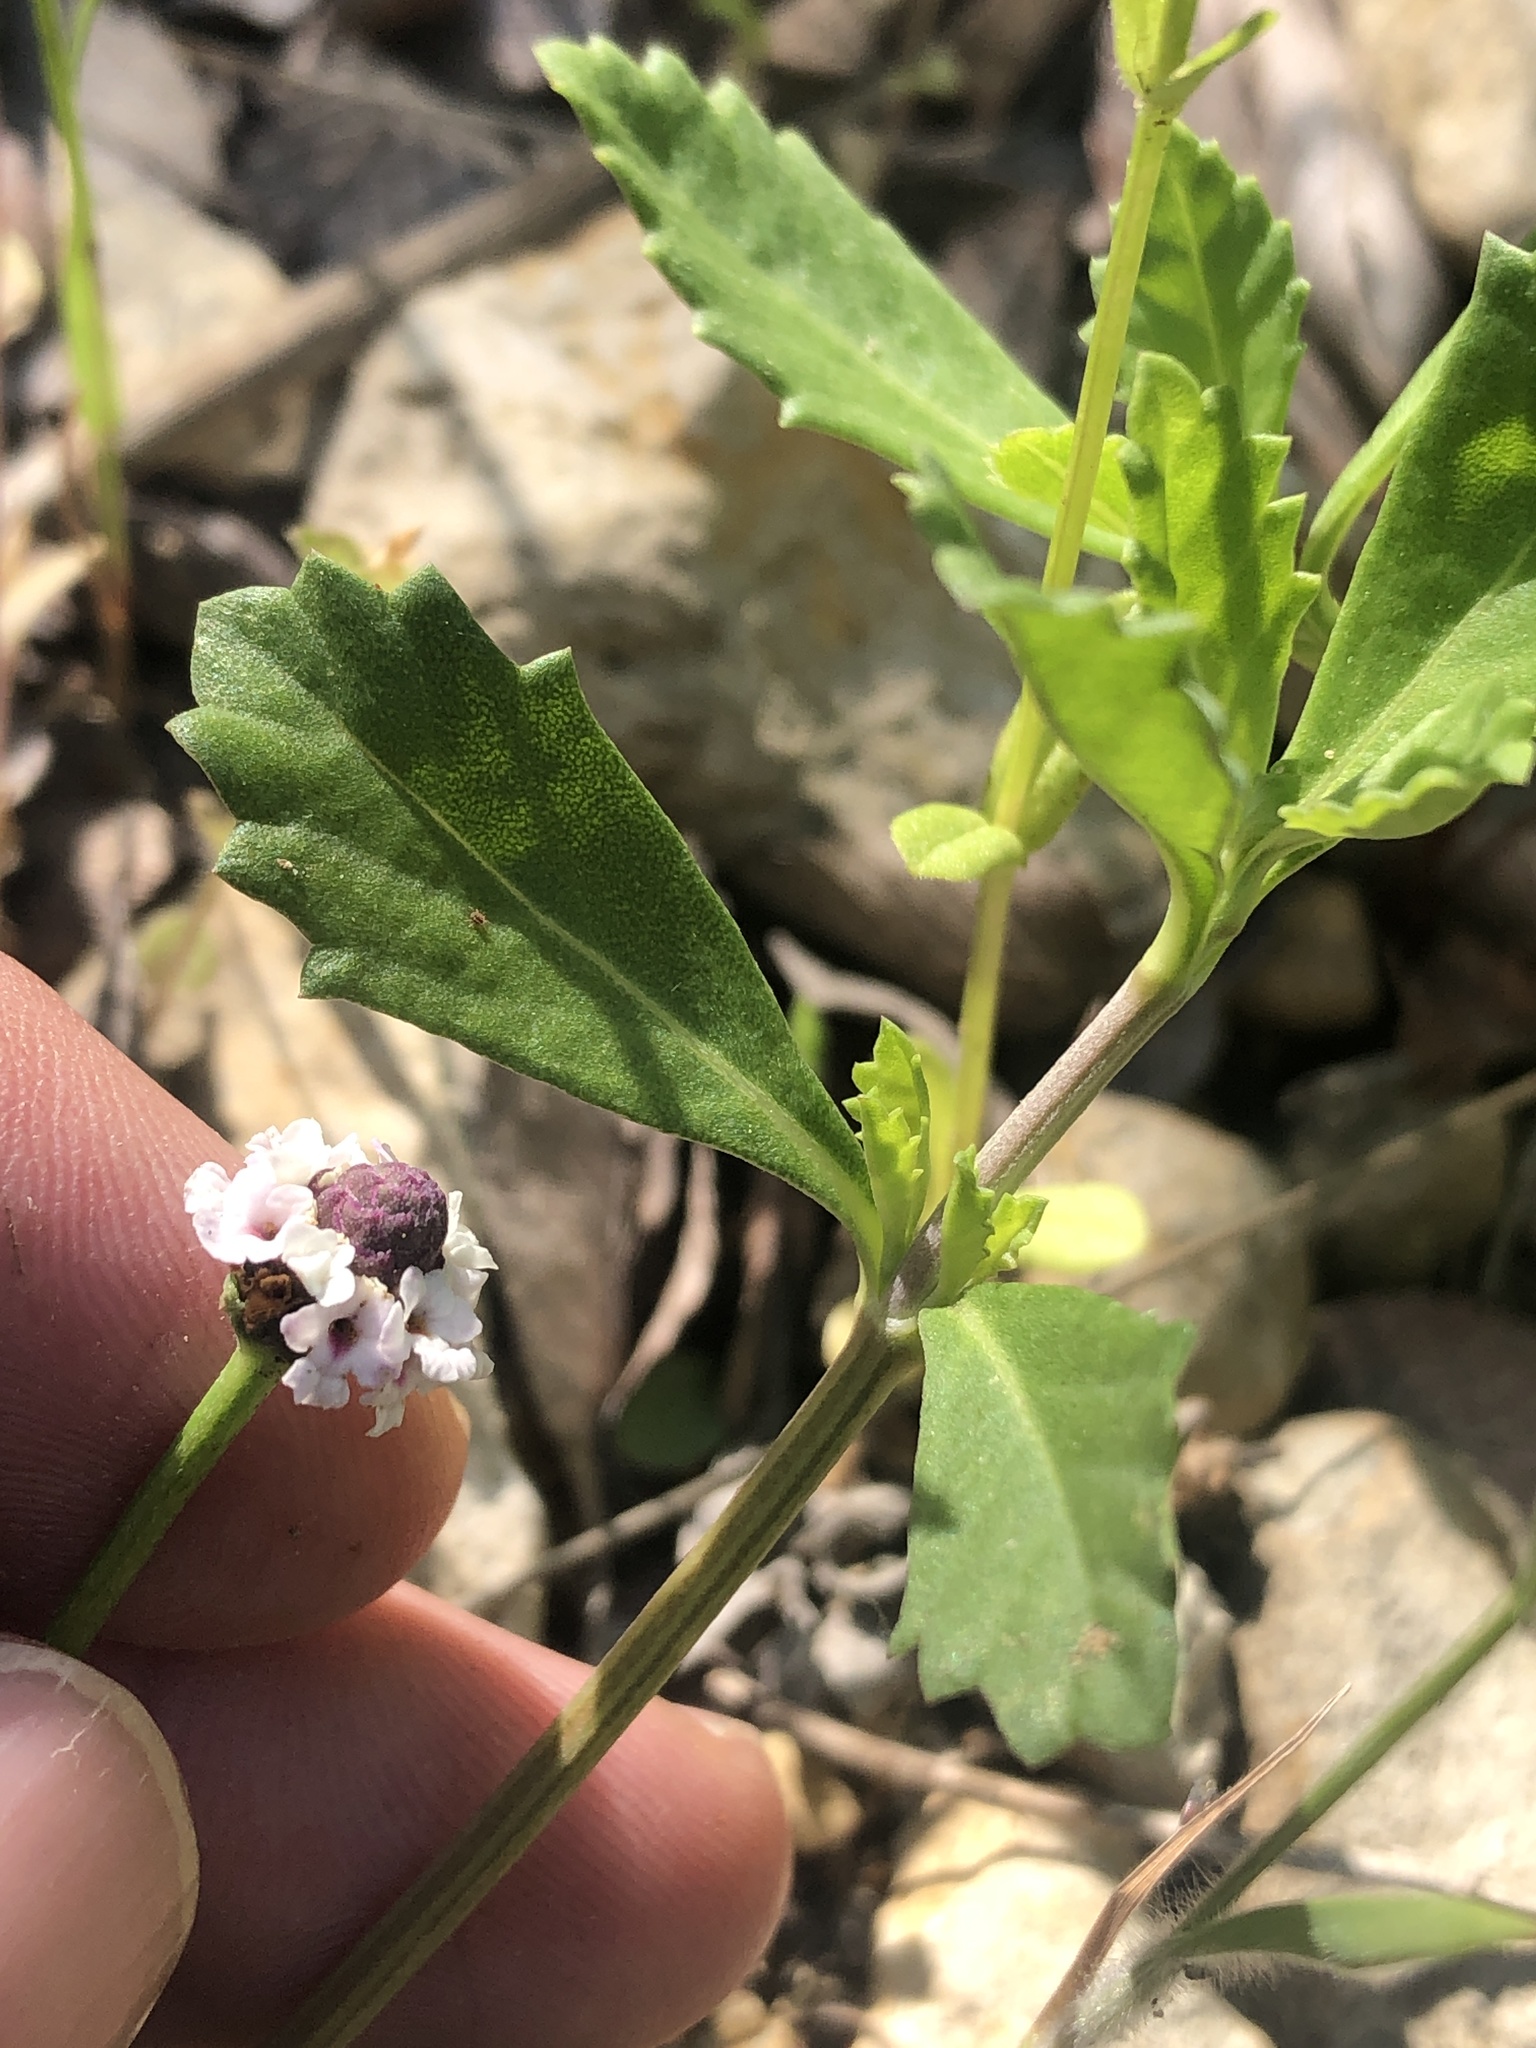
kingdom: Plantae
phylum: Tracheophyta
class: Magnoliopsida
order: Lamiales
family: Verbenaceae
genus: Phyla
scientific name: Phyla nodiflora
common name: Frogfruit
